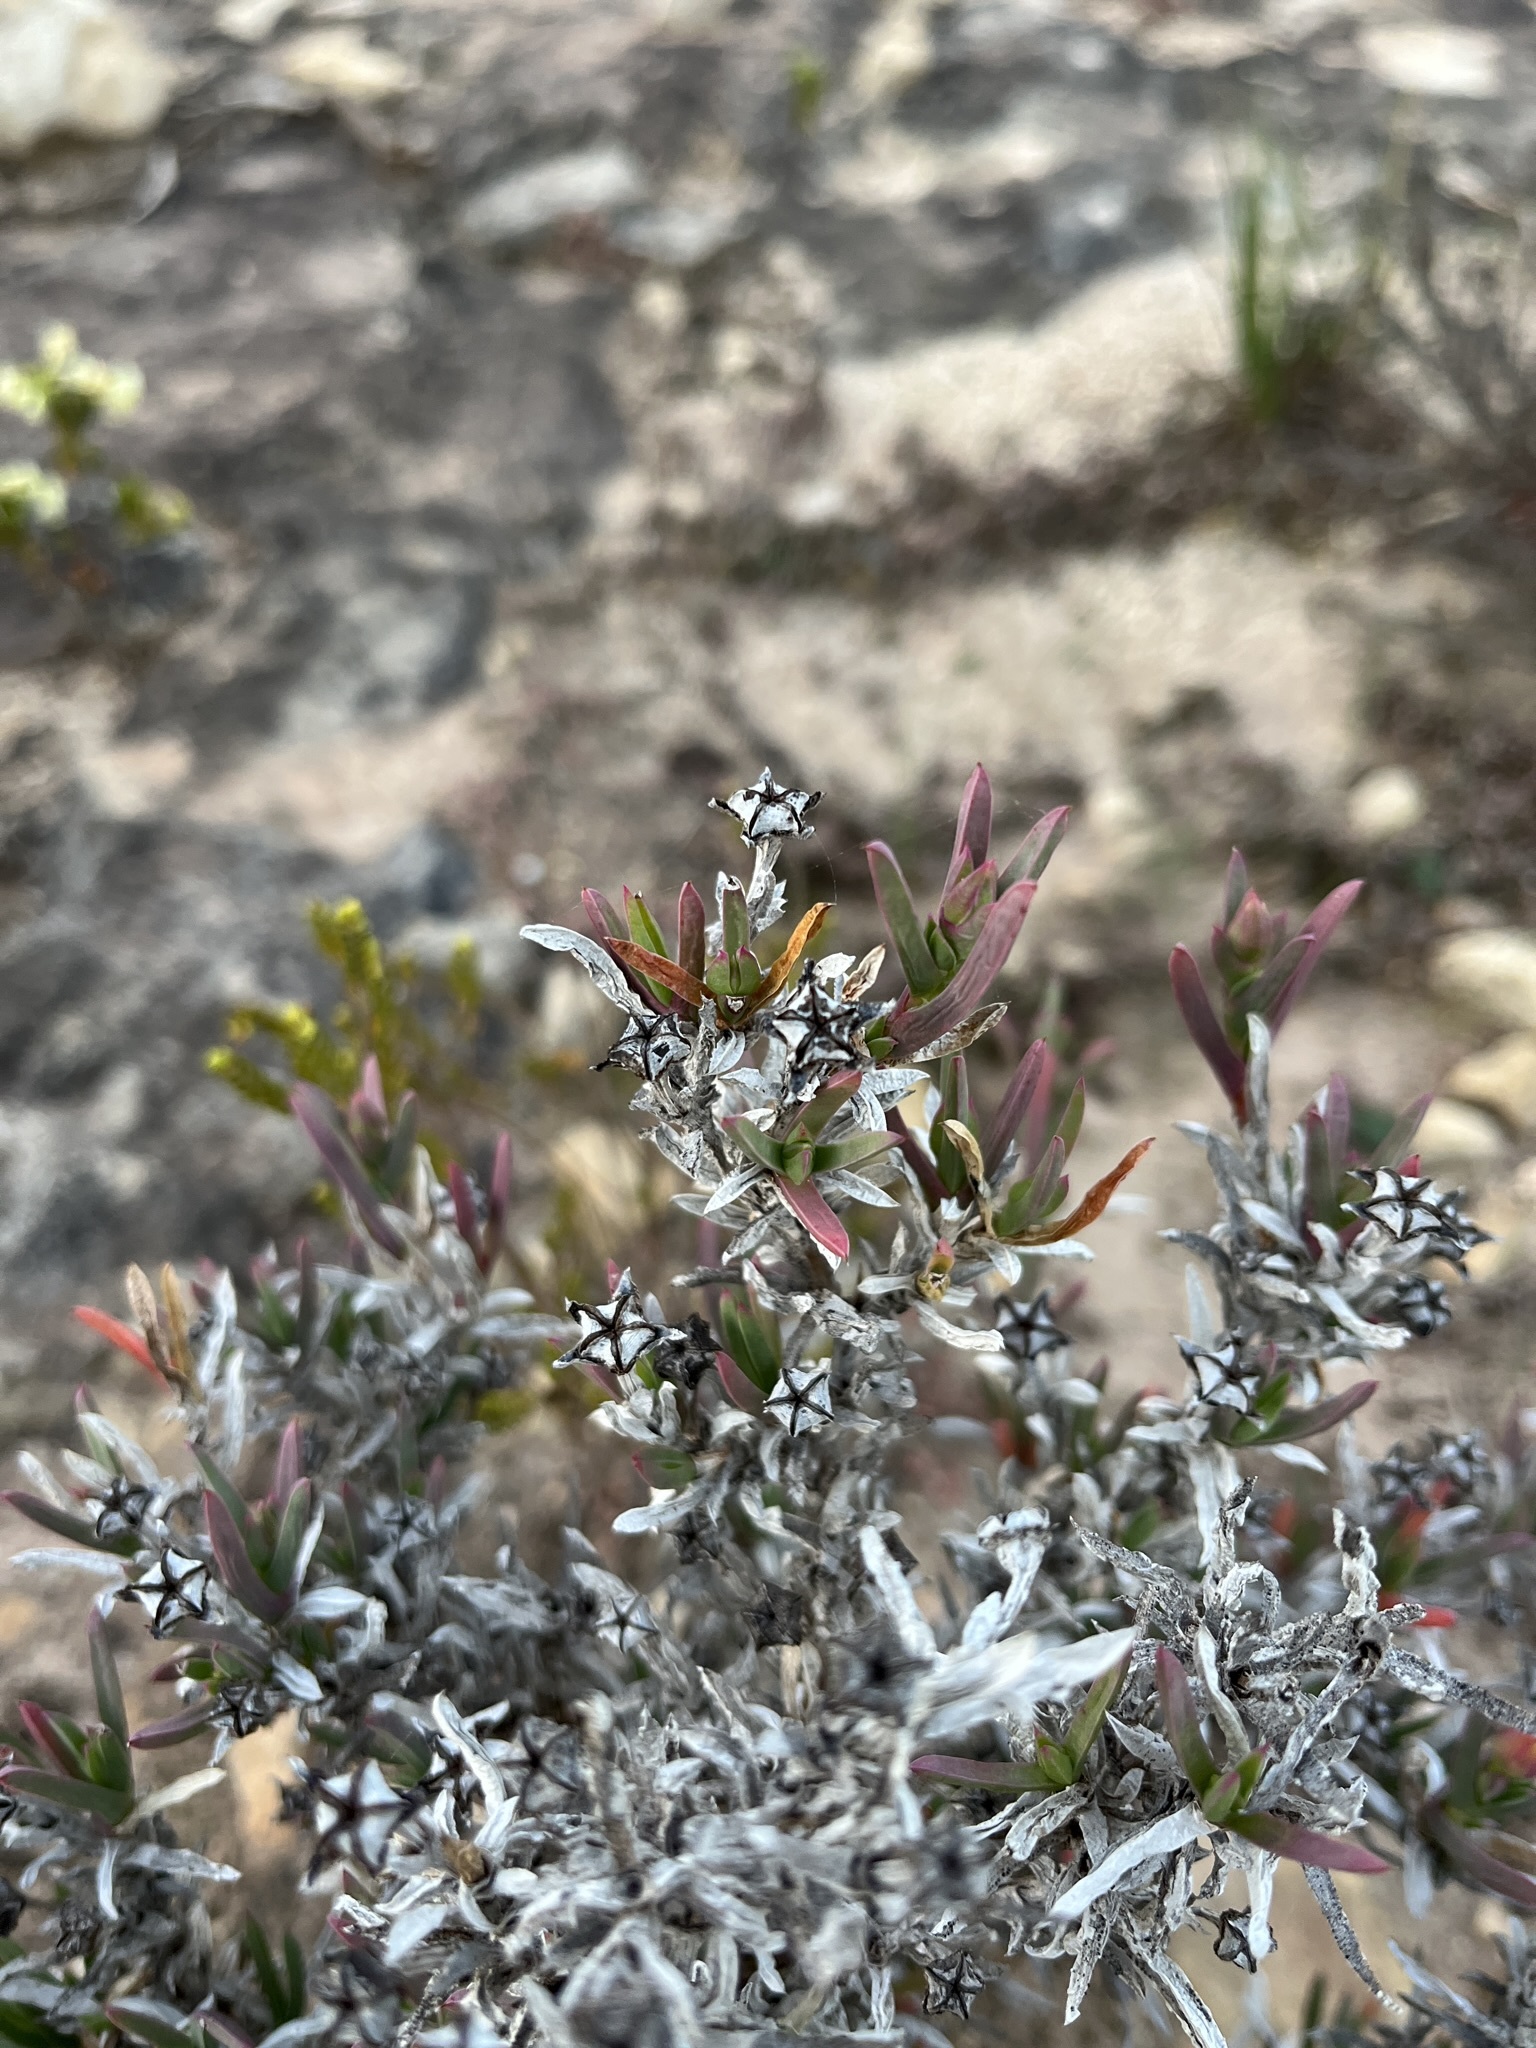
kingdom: Plantae
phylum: Tracheophyta
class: Magnoliopsida
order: Caryophyllales
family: Aizoaceae
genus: Ruschia
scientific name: Ruschia calcicola
